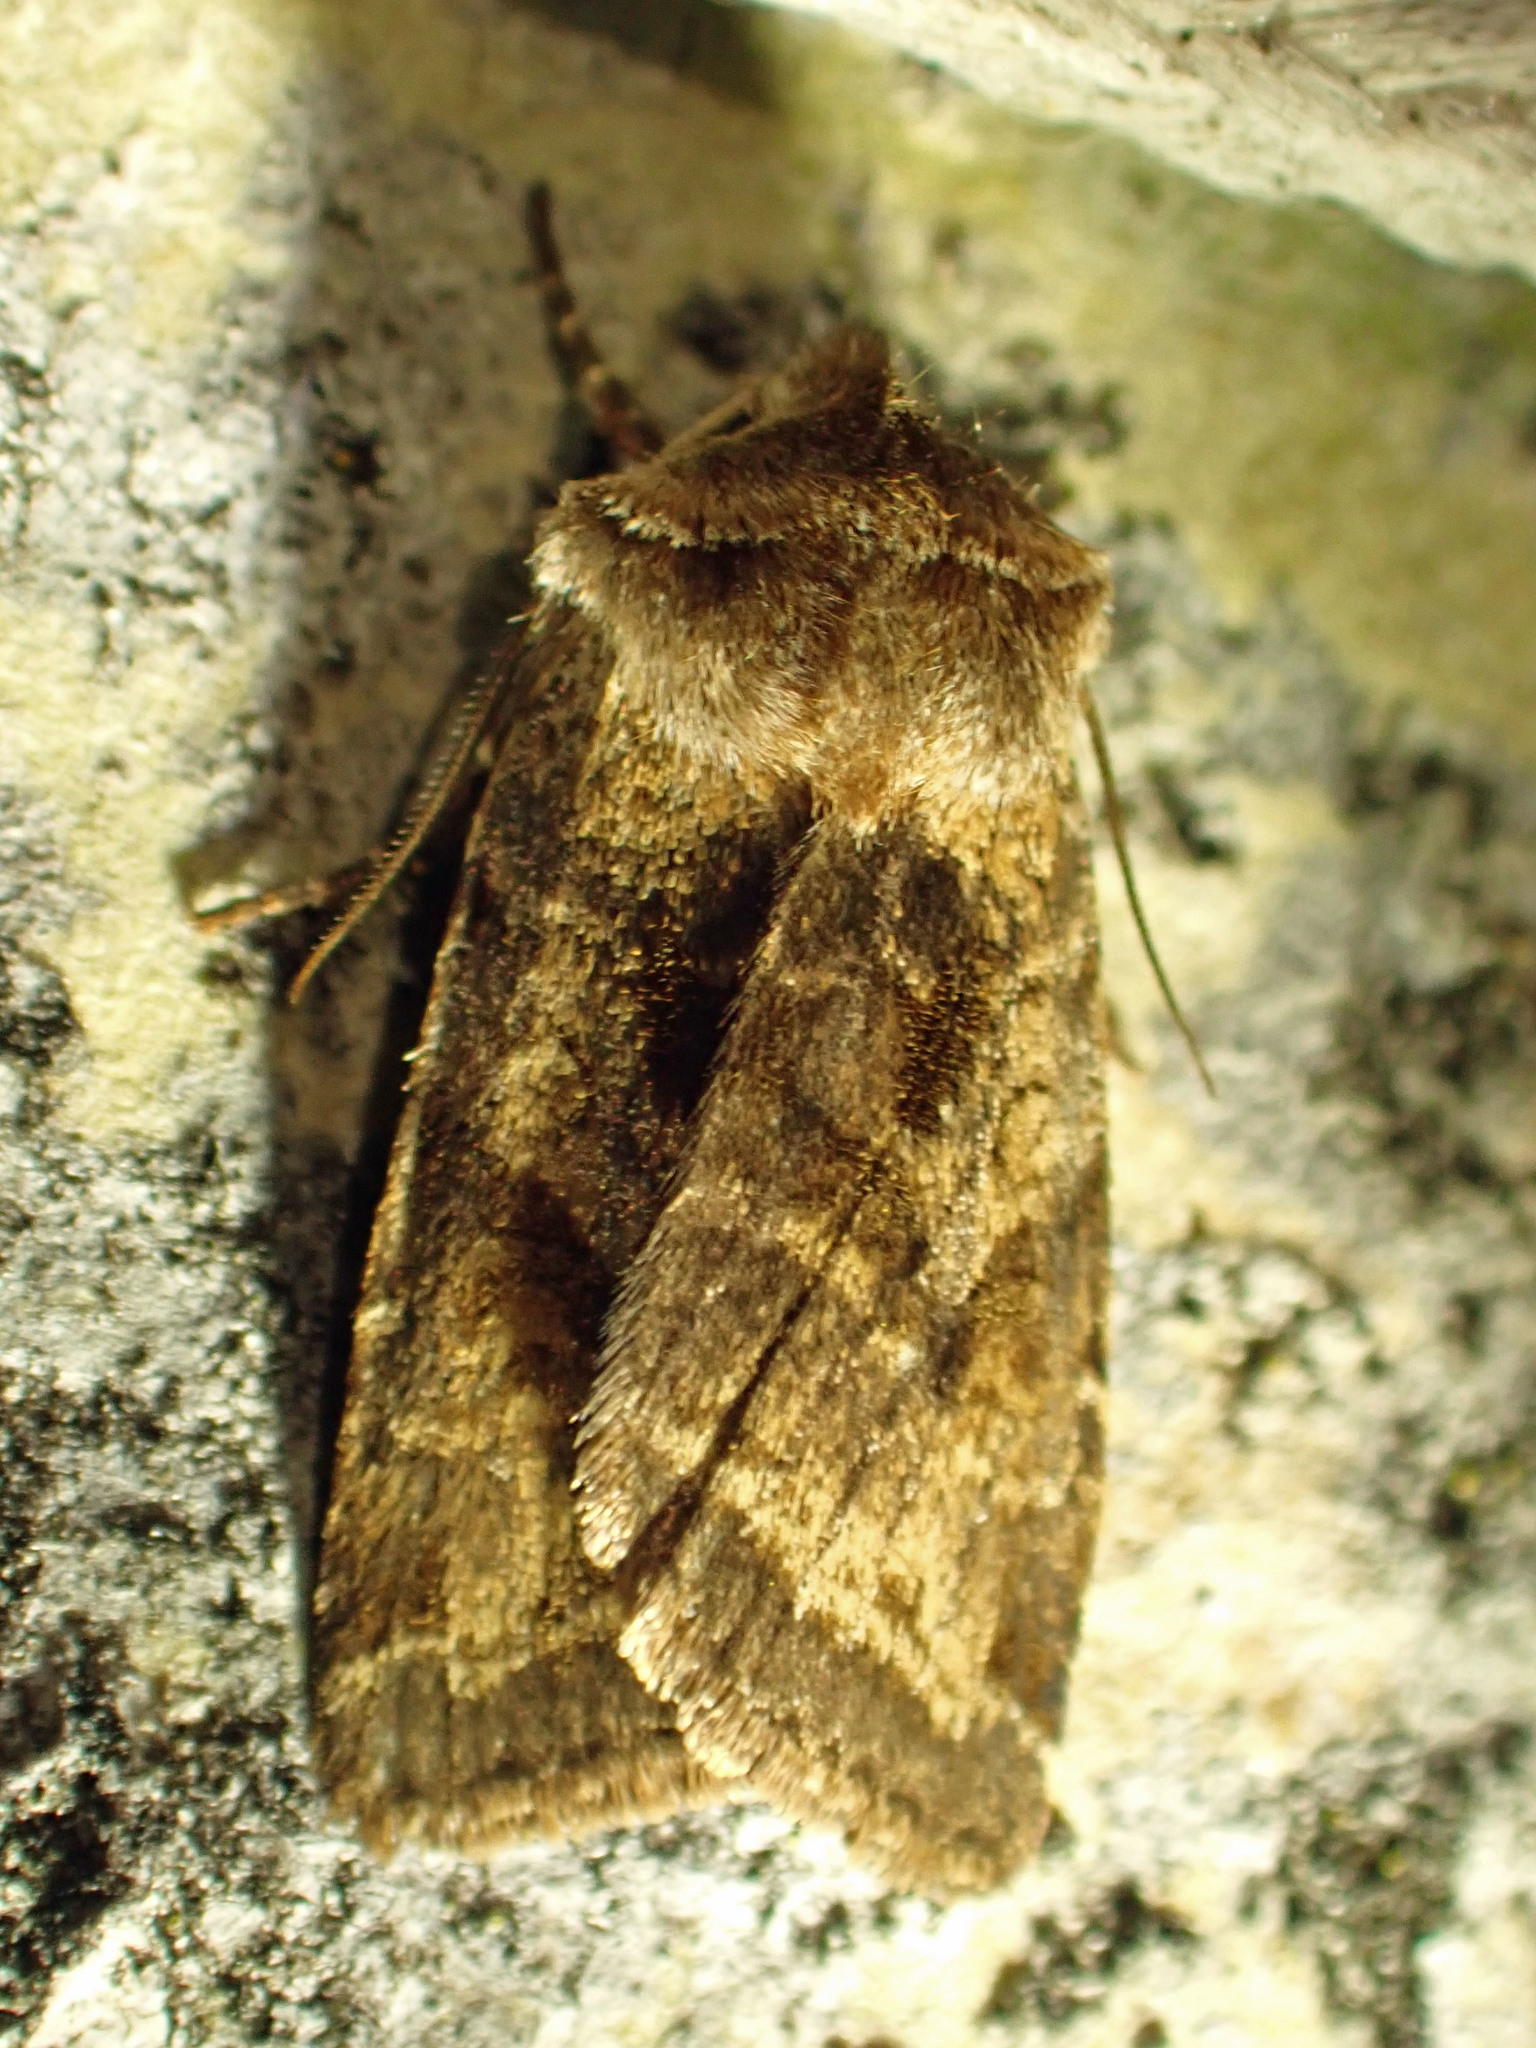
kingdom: Animalia
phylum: Arthropoda
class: Insecta
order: Lepidoptera
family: Noctuidae
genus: Cerastis
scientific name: Cerastis salicarum
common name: Willow dart
